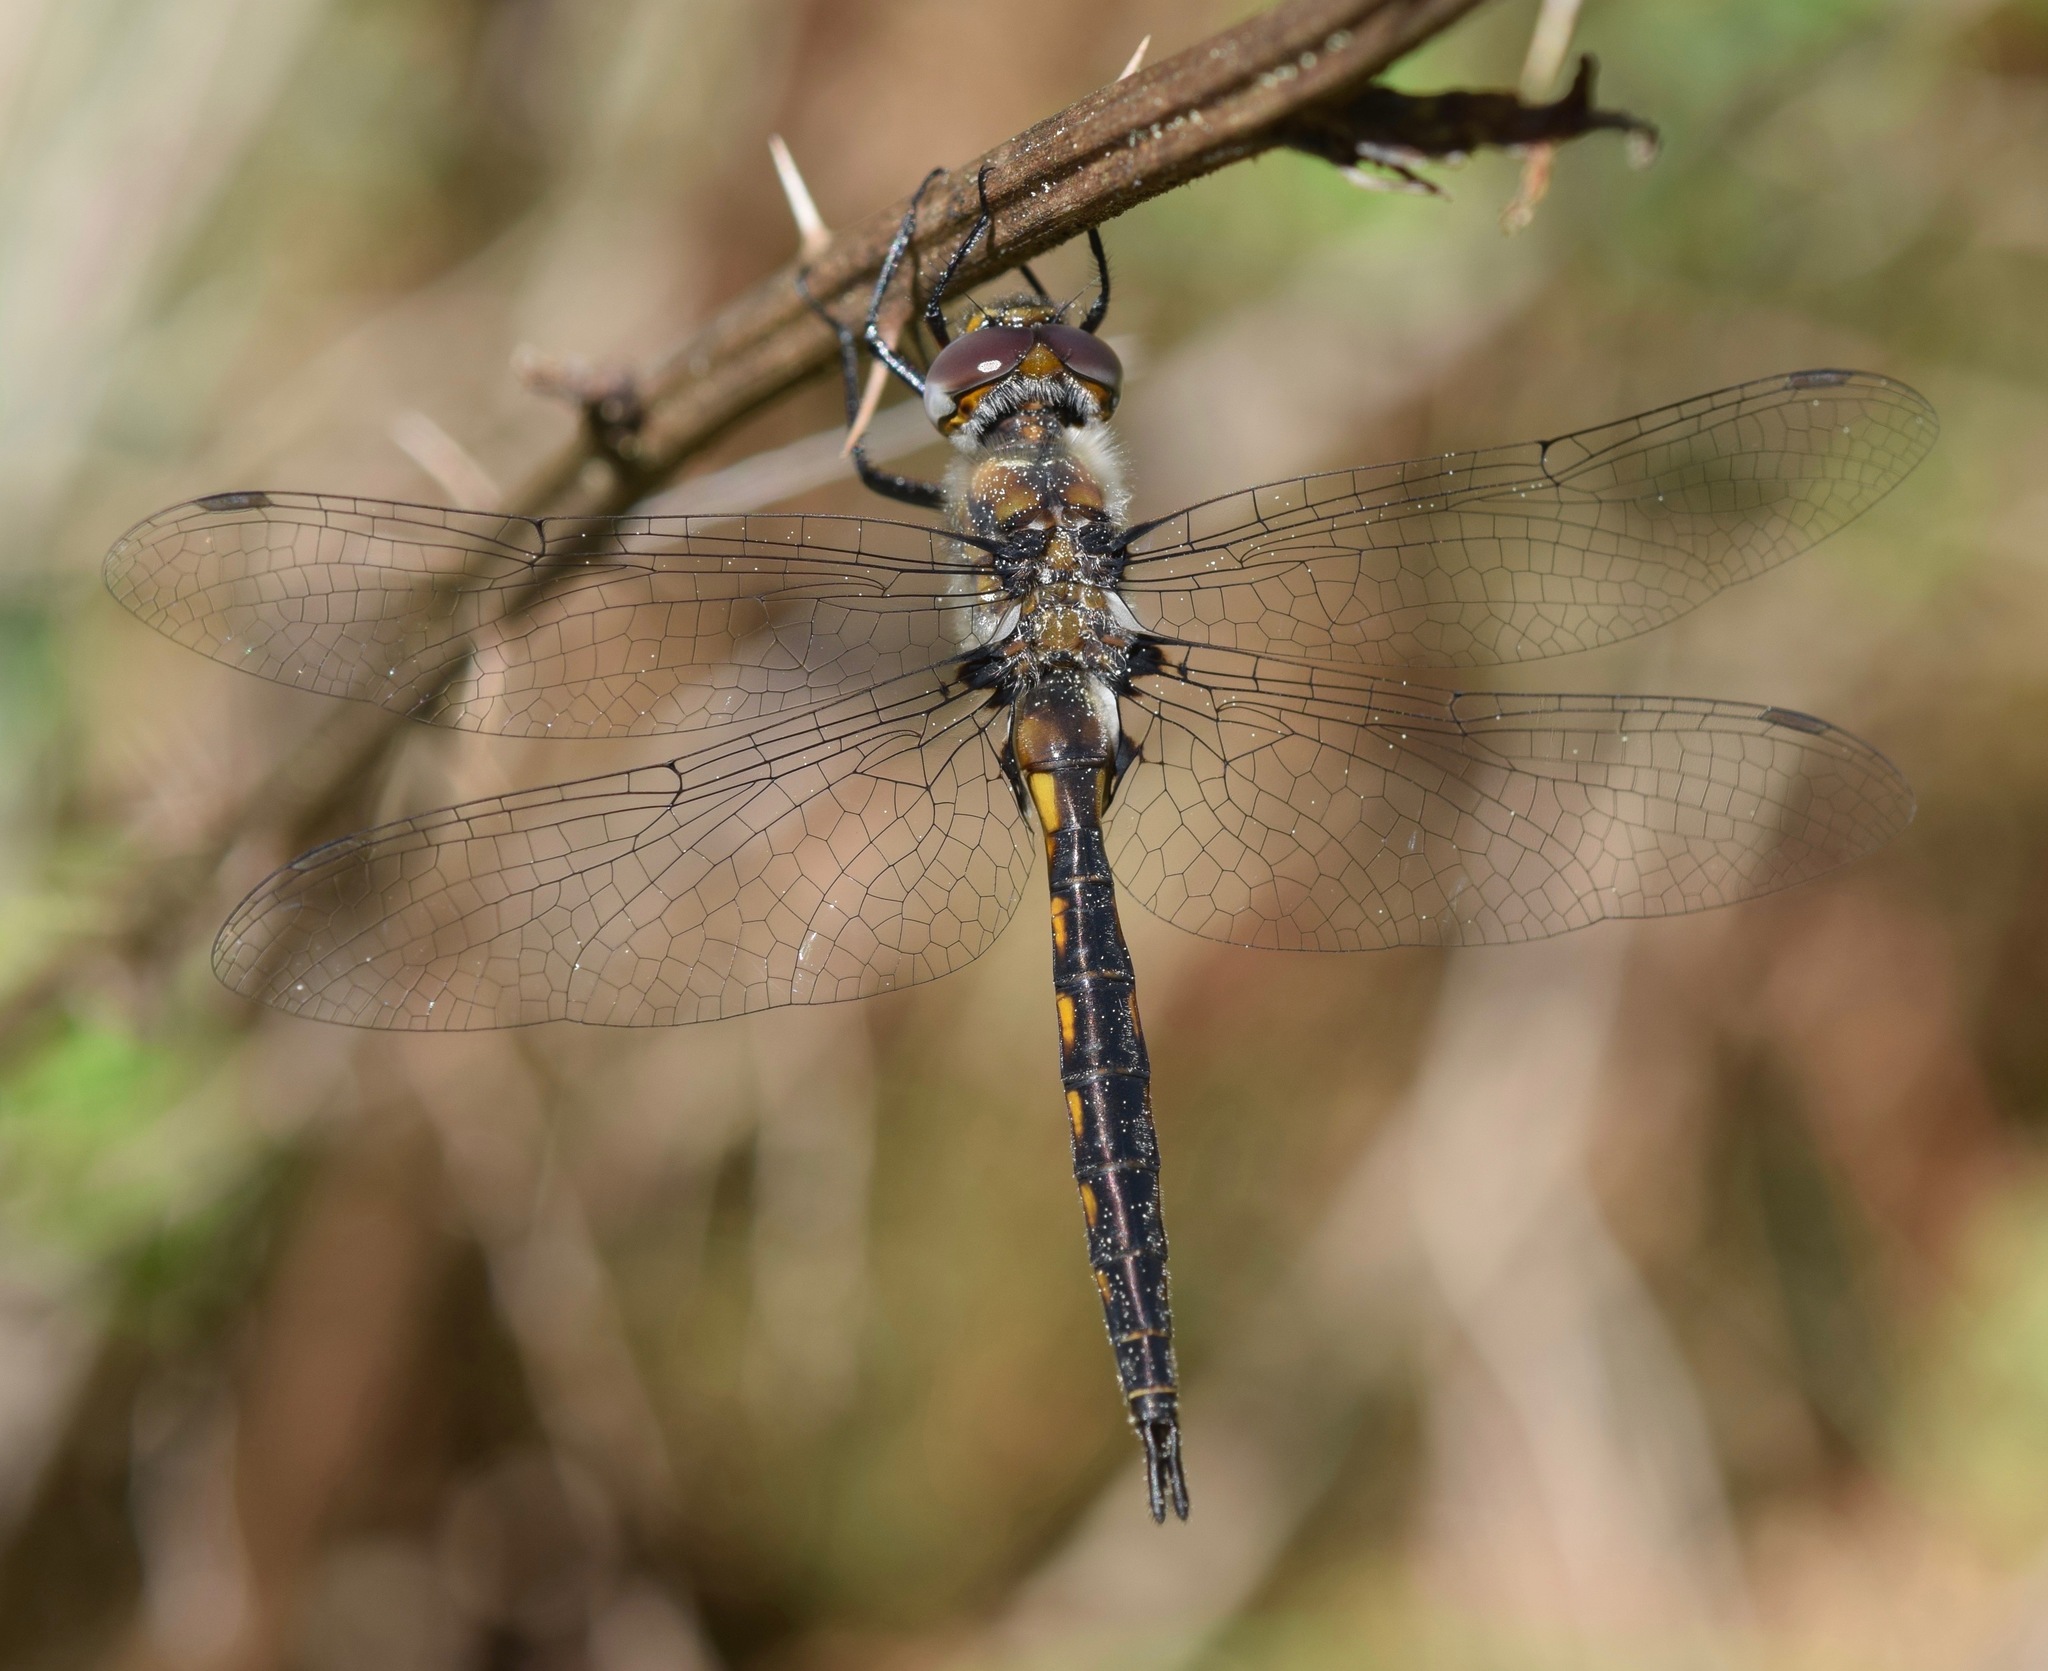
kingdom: Animalia
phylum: Arthropoda
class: Insecta
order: Odonata
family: Corduliidae
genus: Epitheca
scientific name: Epitheca costalis
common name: Slender baskettail
